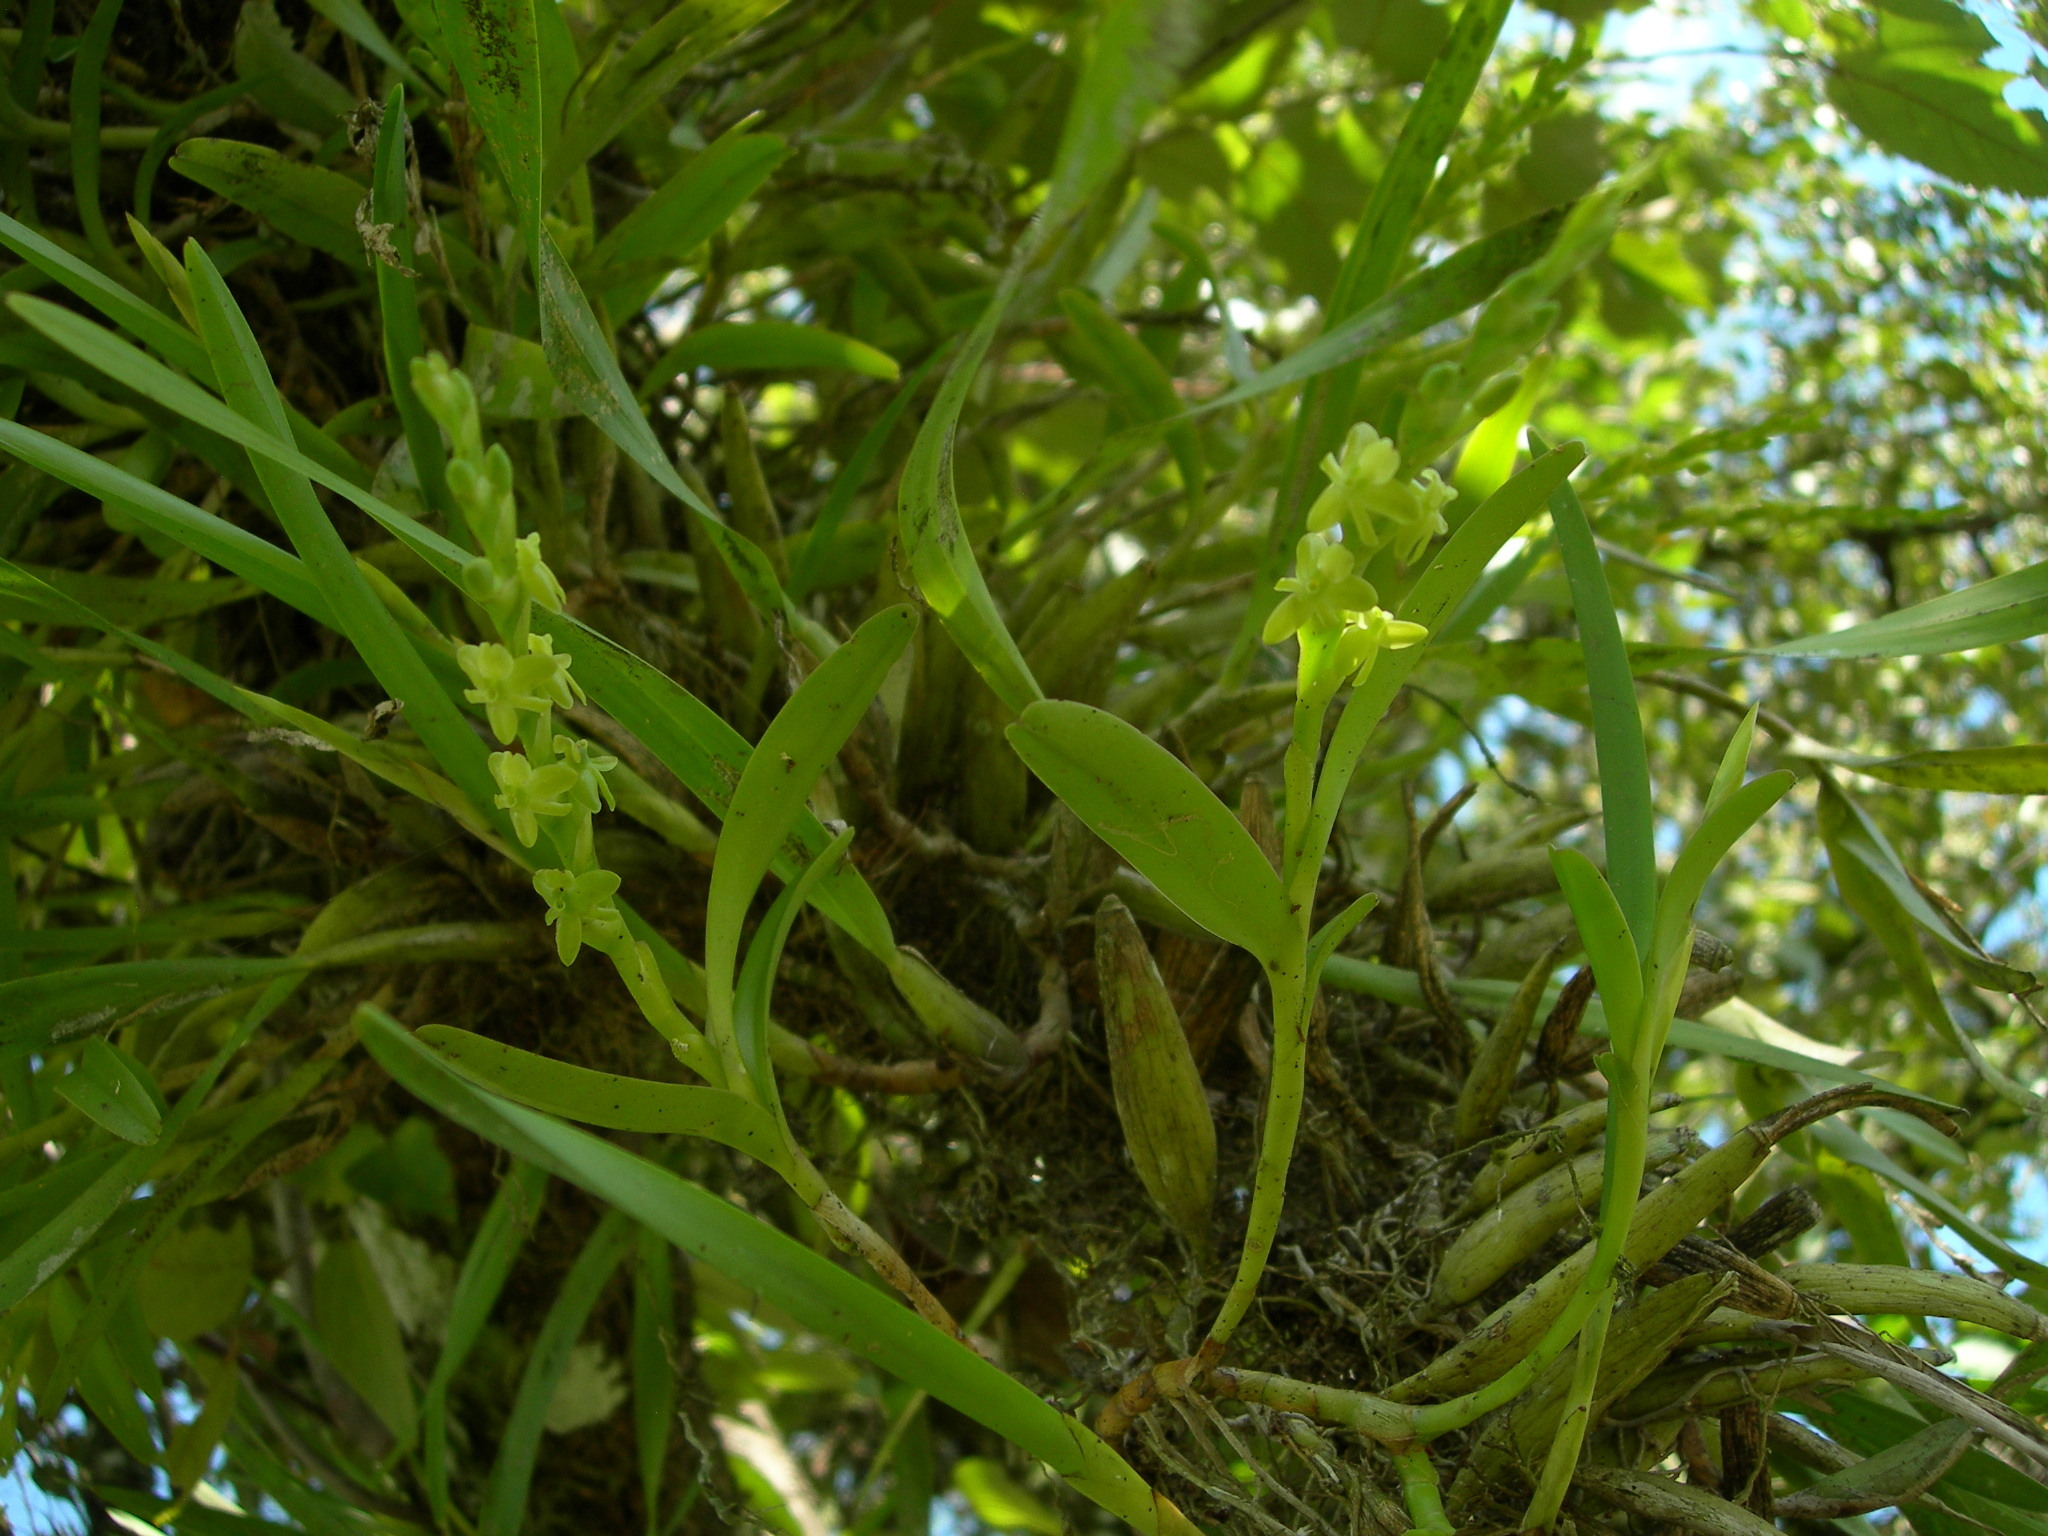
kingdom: Plantae
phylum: Tracheophyta
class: Liliopsida
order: Asparagales
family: Orchidaceae
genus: Epidendrum
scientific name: Epidendrum cardiophorum
